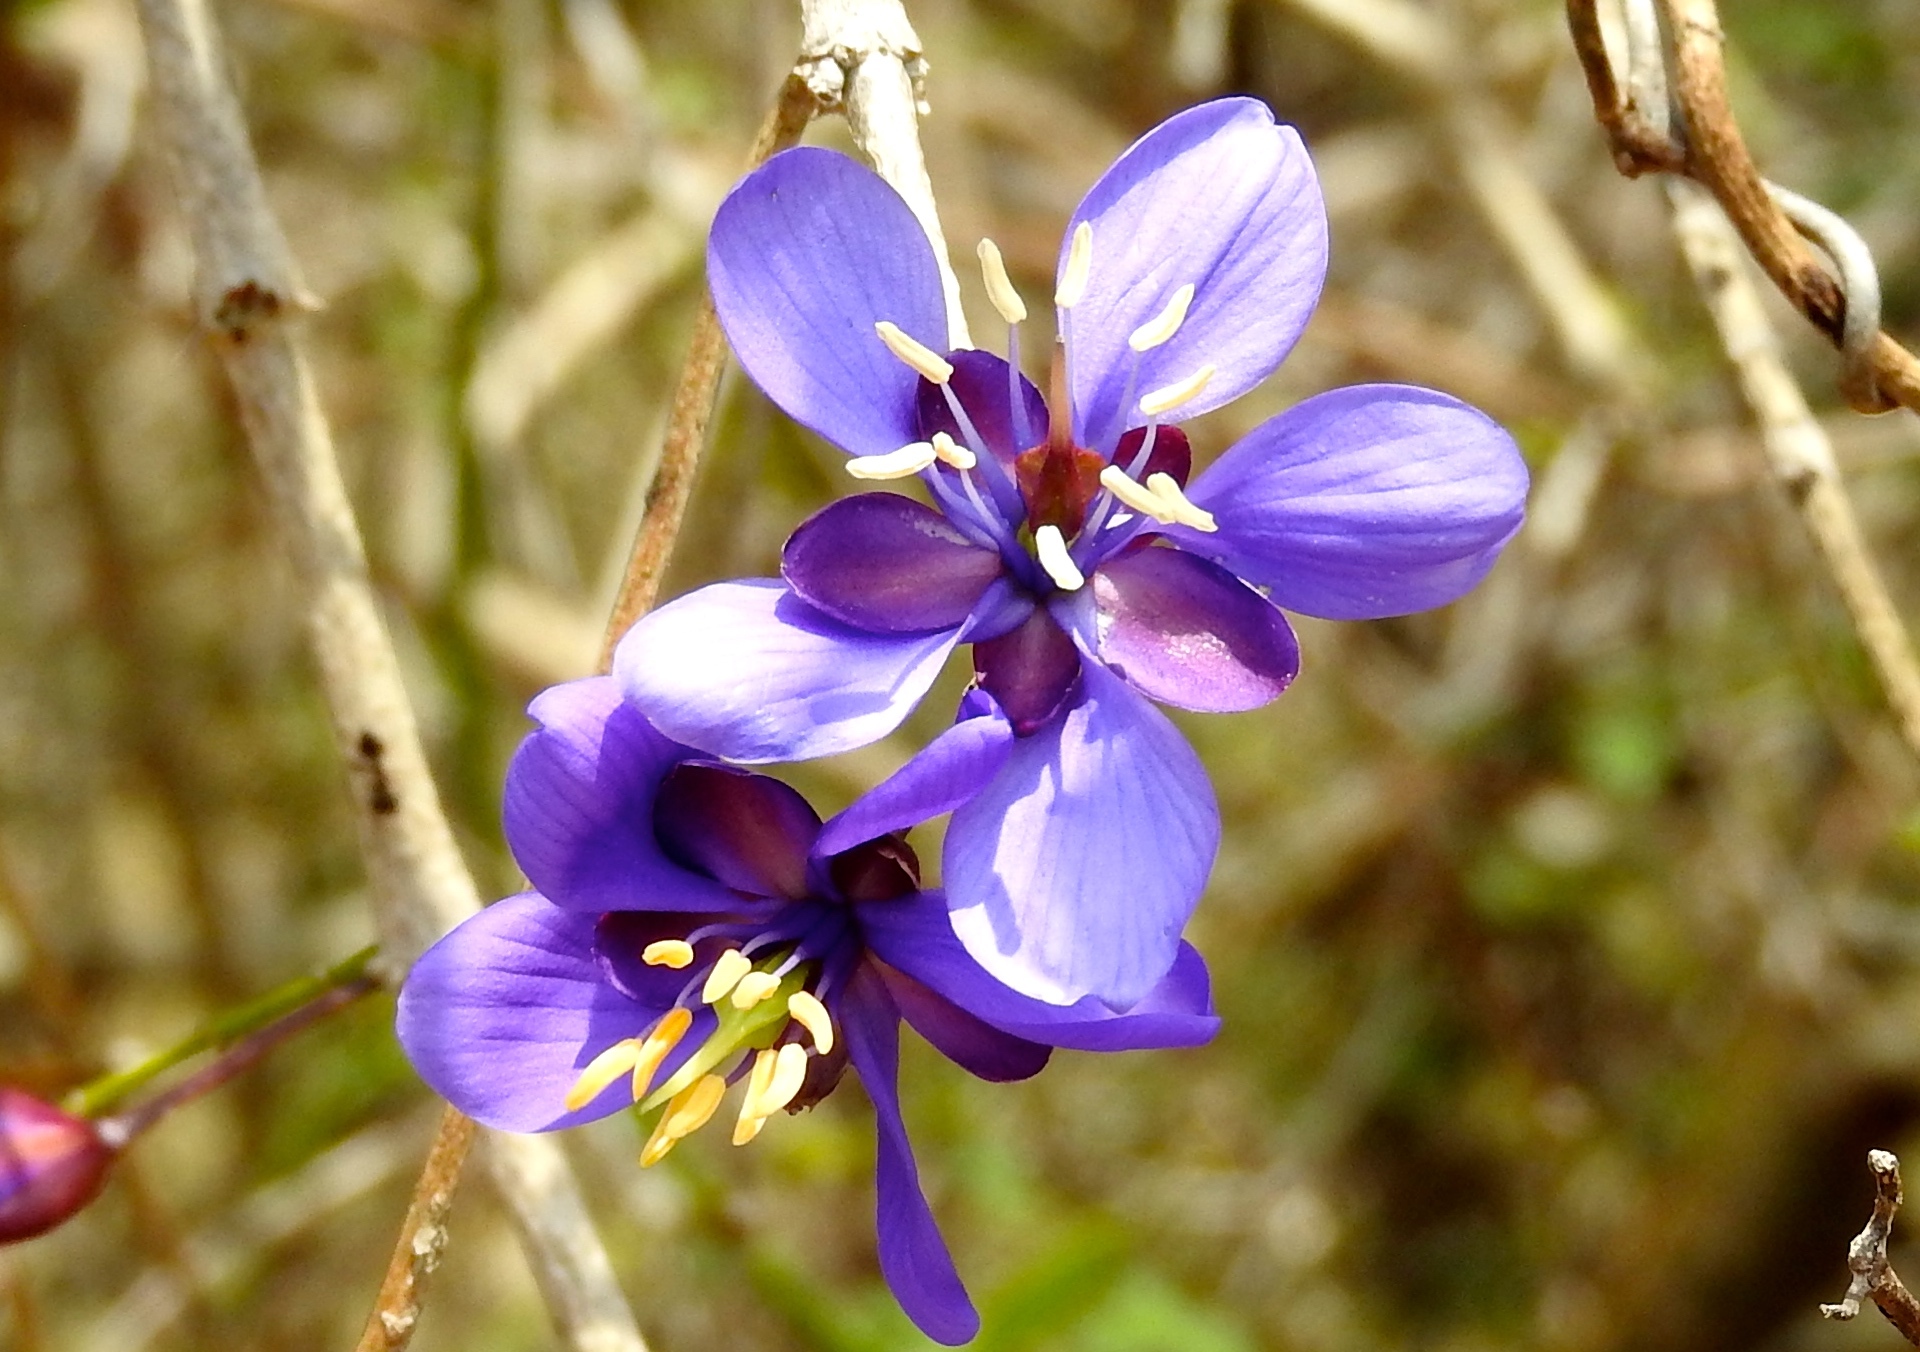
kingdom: Plantae
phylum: Tracheophyta
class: Magnoliopsida
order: Zygophyllales
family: Zygophyllaceae
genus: Guaiacum
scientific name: Guaiacum coulteri
